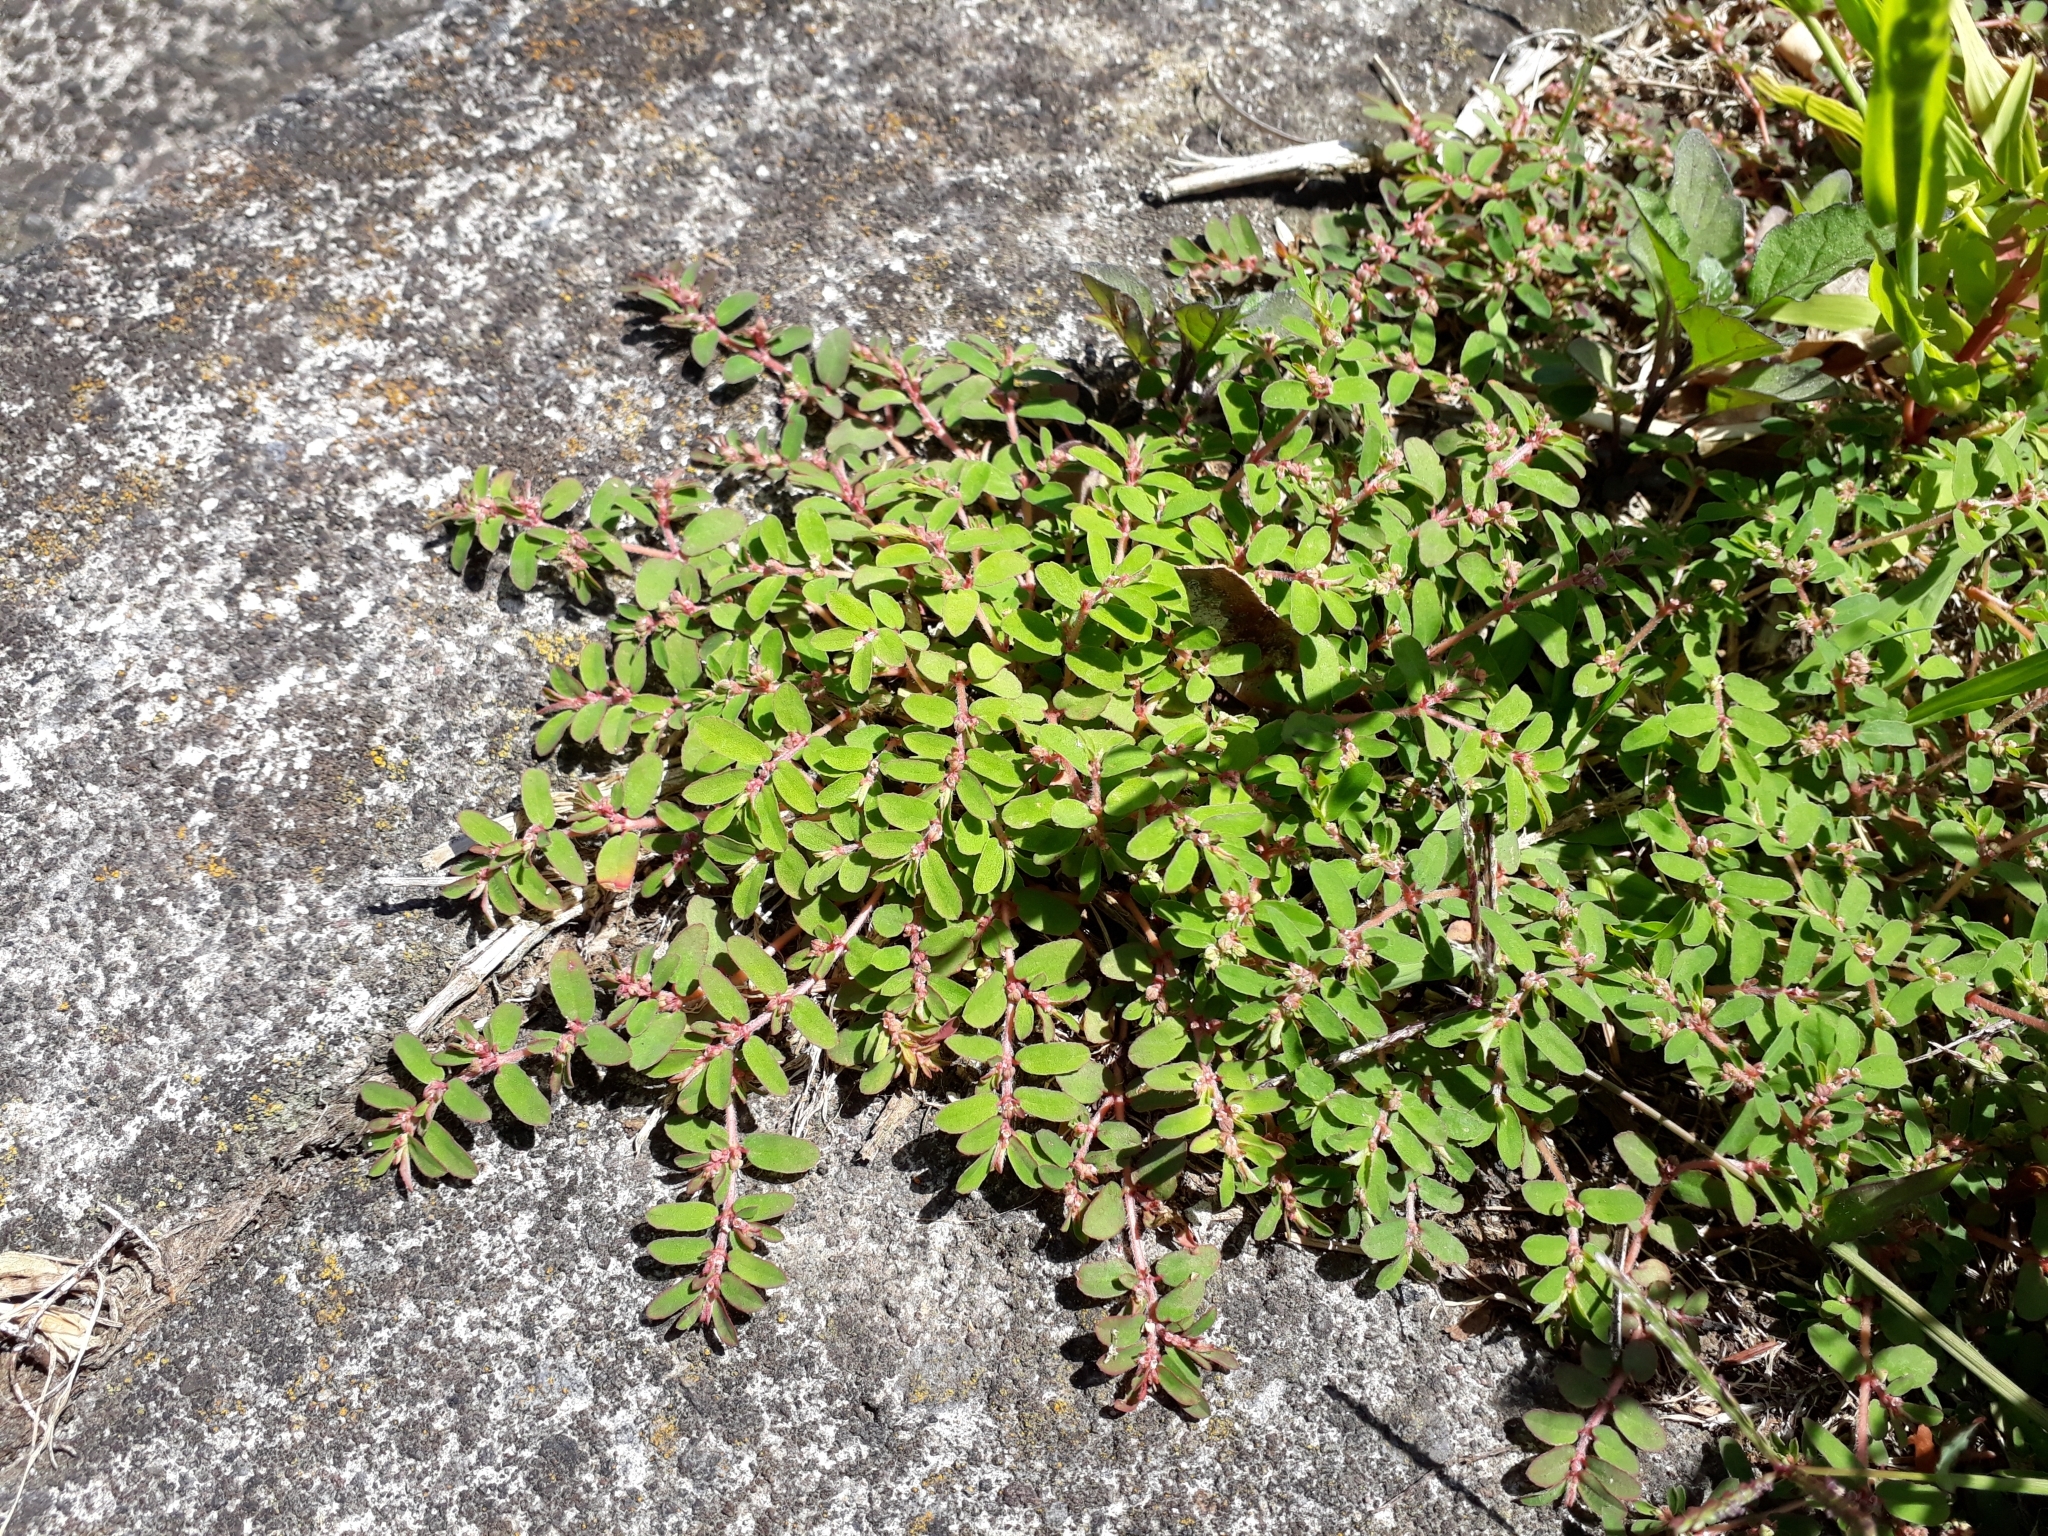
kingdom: Plantae
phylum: Tracheophyta
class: Magnoliopsida
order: Malpighiales
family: Euphorbiaceae
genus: Euphorbia
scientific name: Euphorbia maculata
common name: Spotted spurge
